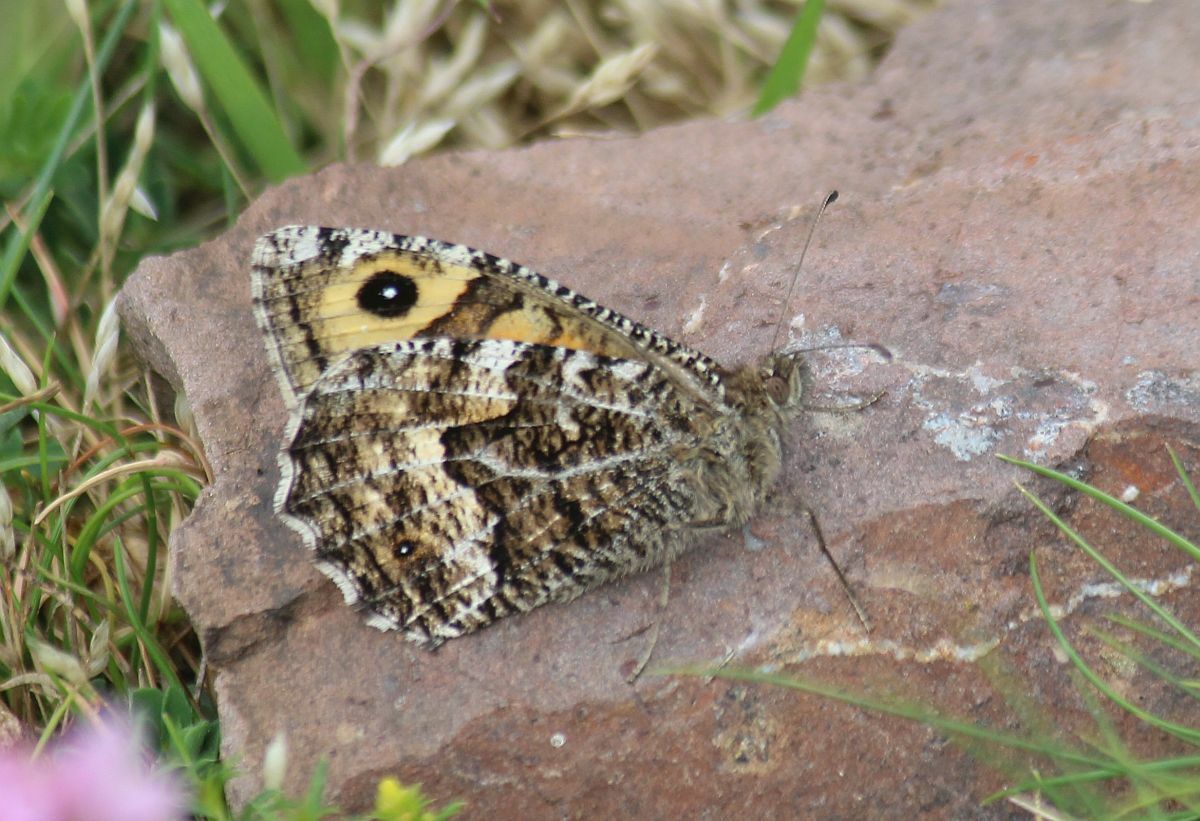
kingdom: Animalia
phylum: Arthropoda
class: Insecta
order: Lepidoptera
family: Nymphalidae
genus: Hipparchia
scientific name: Hipparchia semele
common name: Grayling
